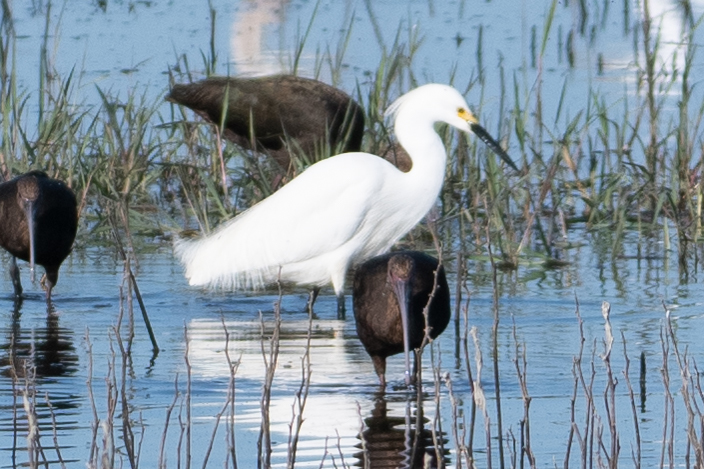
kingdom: Animalia
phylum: Chordata
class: Aves
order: Pelecaniformes
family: Ardeidae
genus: Egretta
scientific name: Egretta thula
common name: Snowy egret
